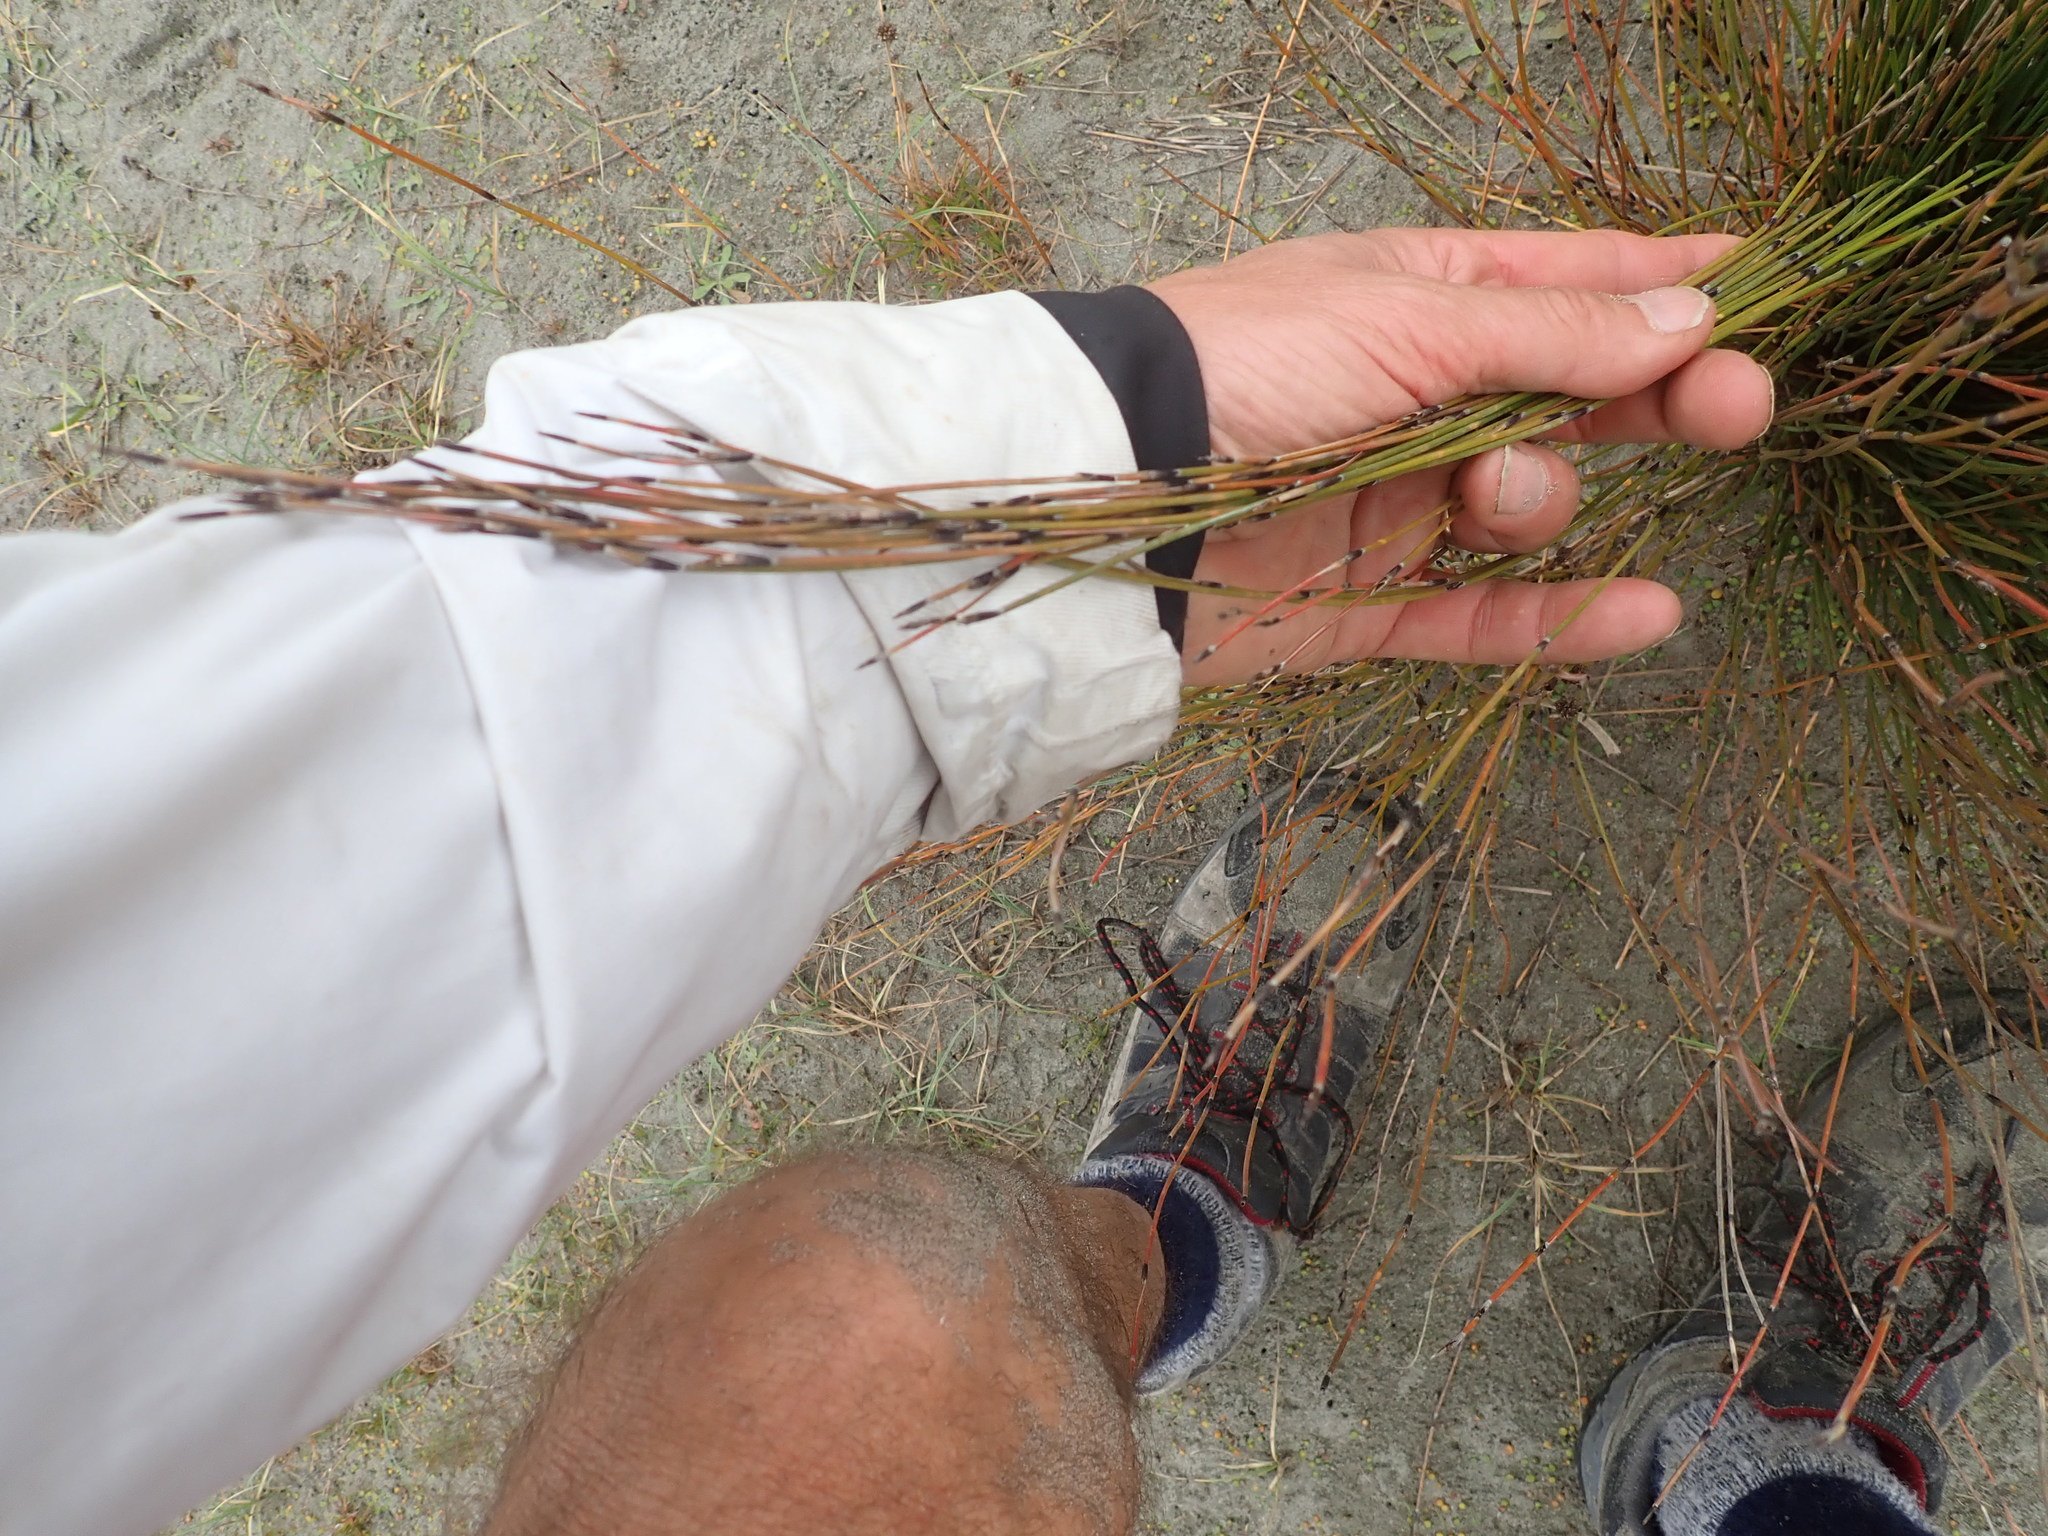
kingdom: Plantae
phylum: Tracheophyta
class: Liliopsida
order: Poales
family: Restionaceae
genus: Apodasmia
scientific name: Apodasmia similis
